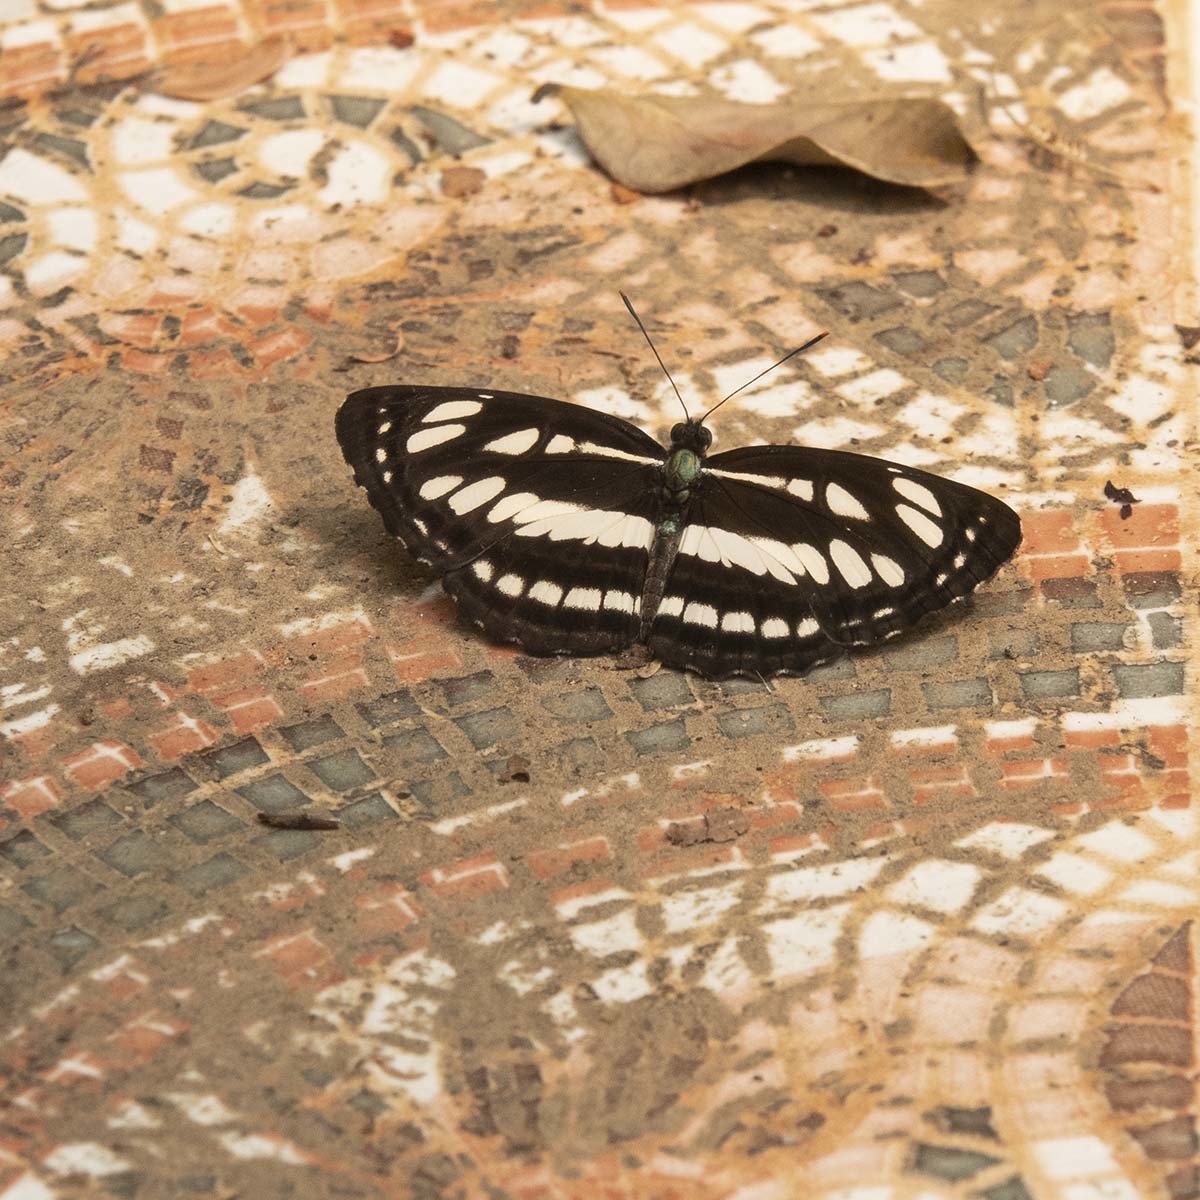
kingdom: Animalia
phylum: Arthropoda
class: Insecta
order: Lepidoptera
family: Nymphalidae
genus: Neptis
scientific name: Neptis hylas
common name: Common sailer
